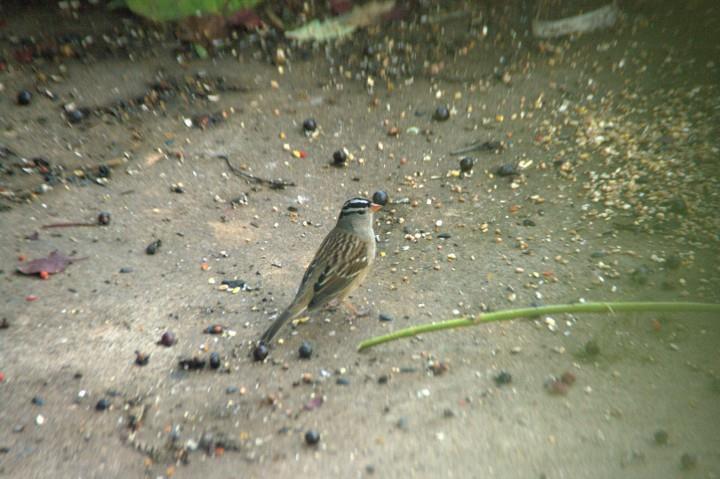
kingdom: Animalia
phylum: Chordata
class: Aves
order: Passeriformes
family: Passerellidae
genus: Zonotrichia
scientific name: Zonotrichia leucophrys
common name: White-crowned sparrow
